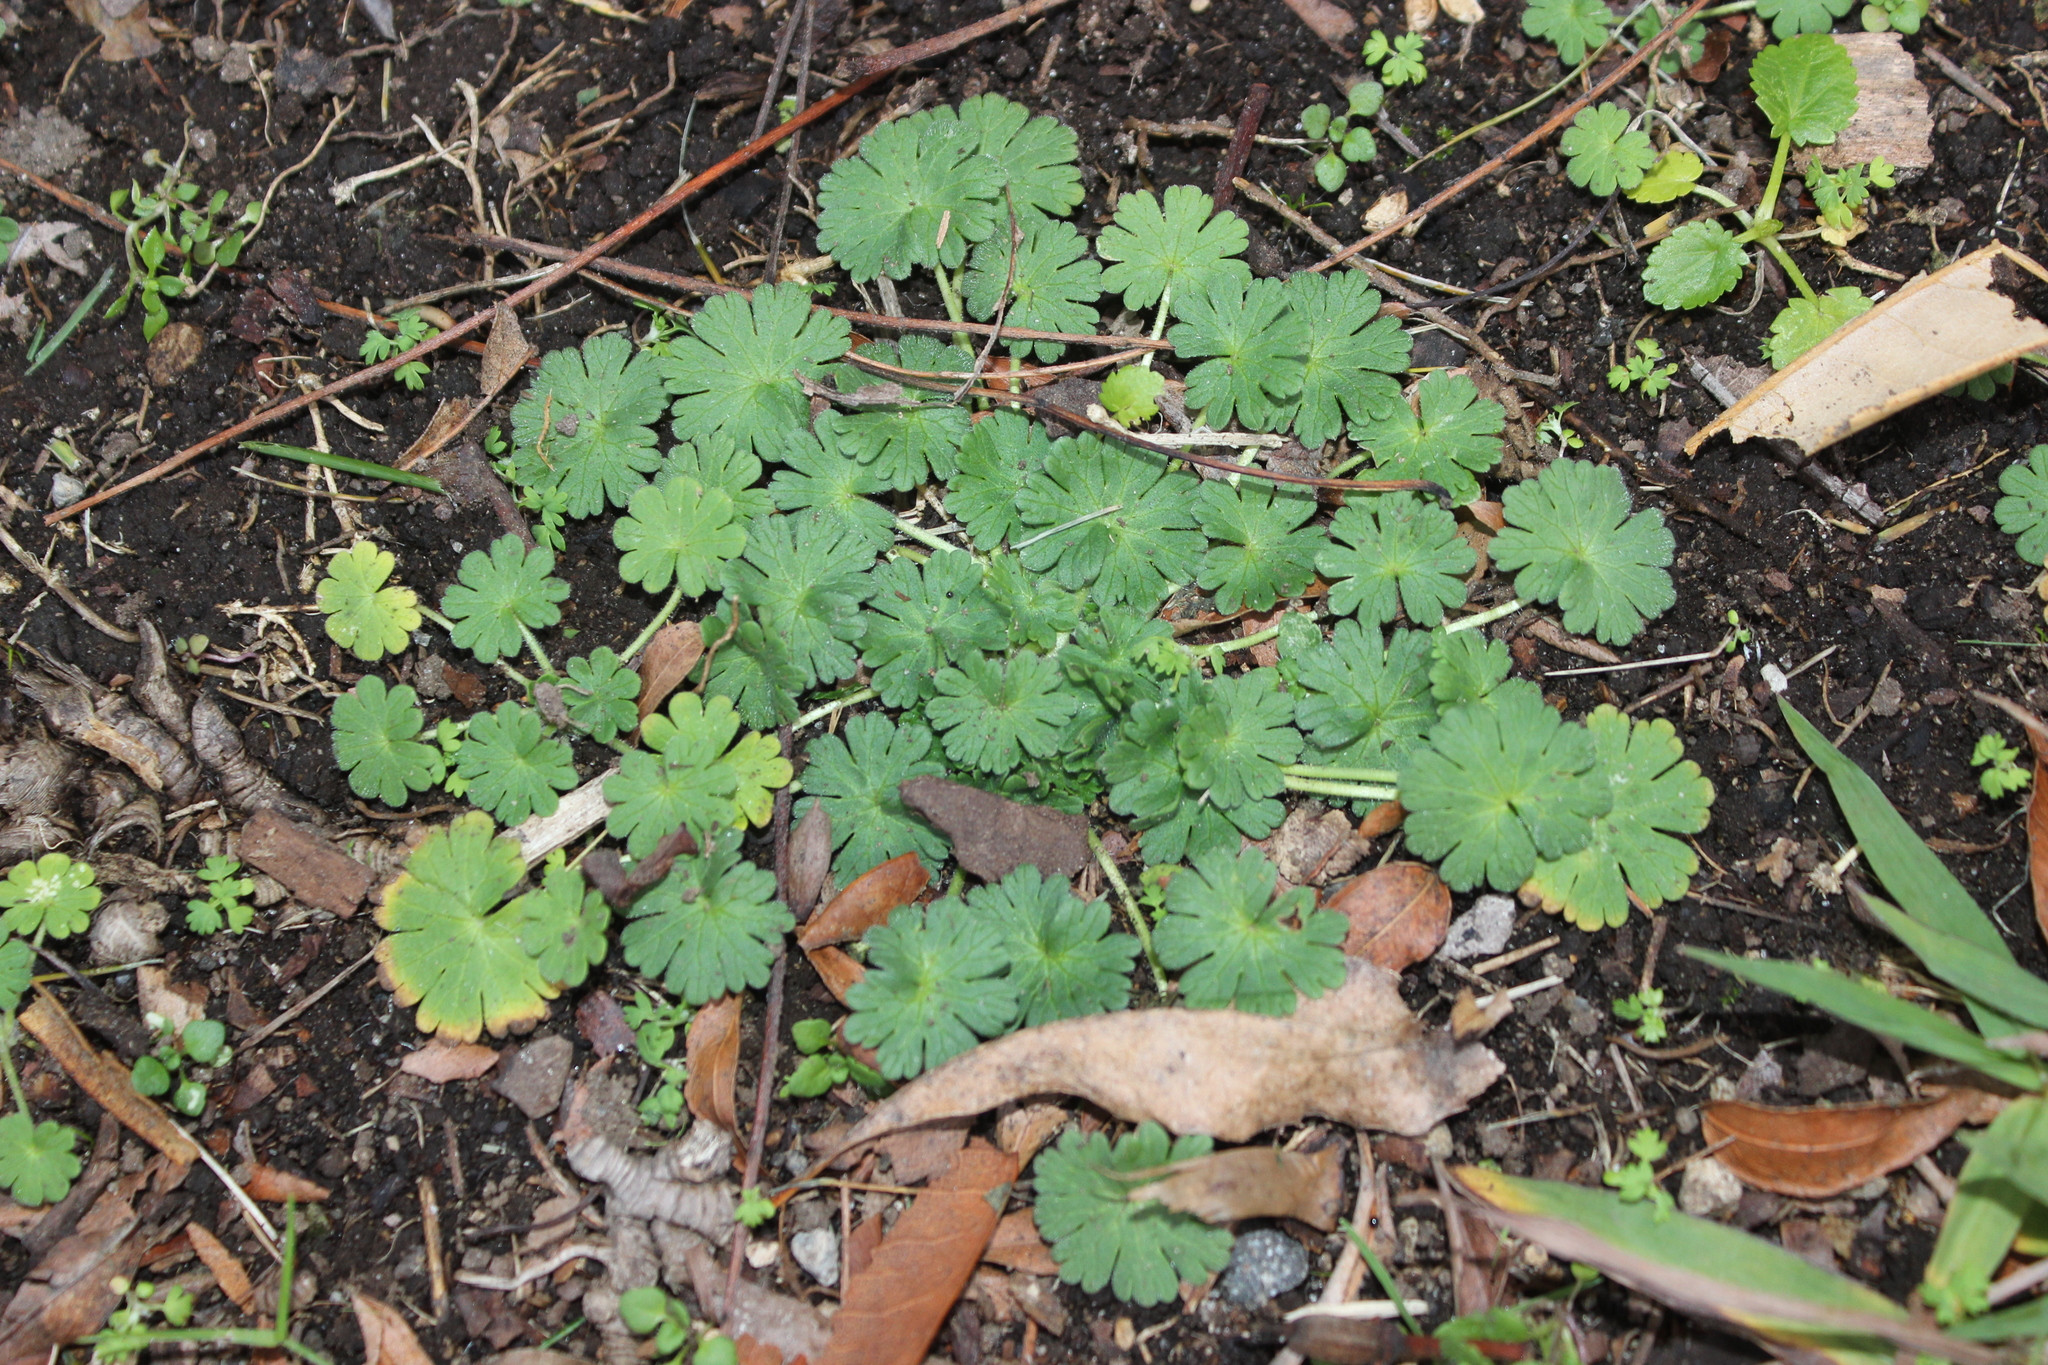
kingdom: Plantae
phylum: Tracheophyta
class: Magnoliopsida
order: Geraniales
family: Geraniaceae
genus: Geranium
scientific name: Geranium molle
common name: Dove's-foot crane's-bill
